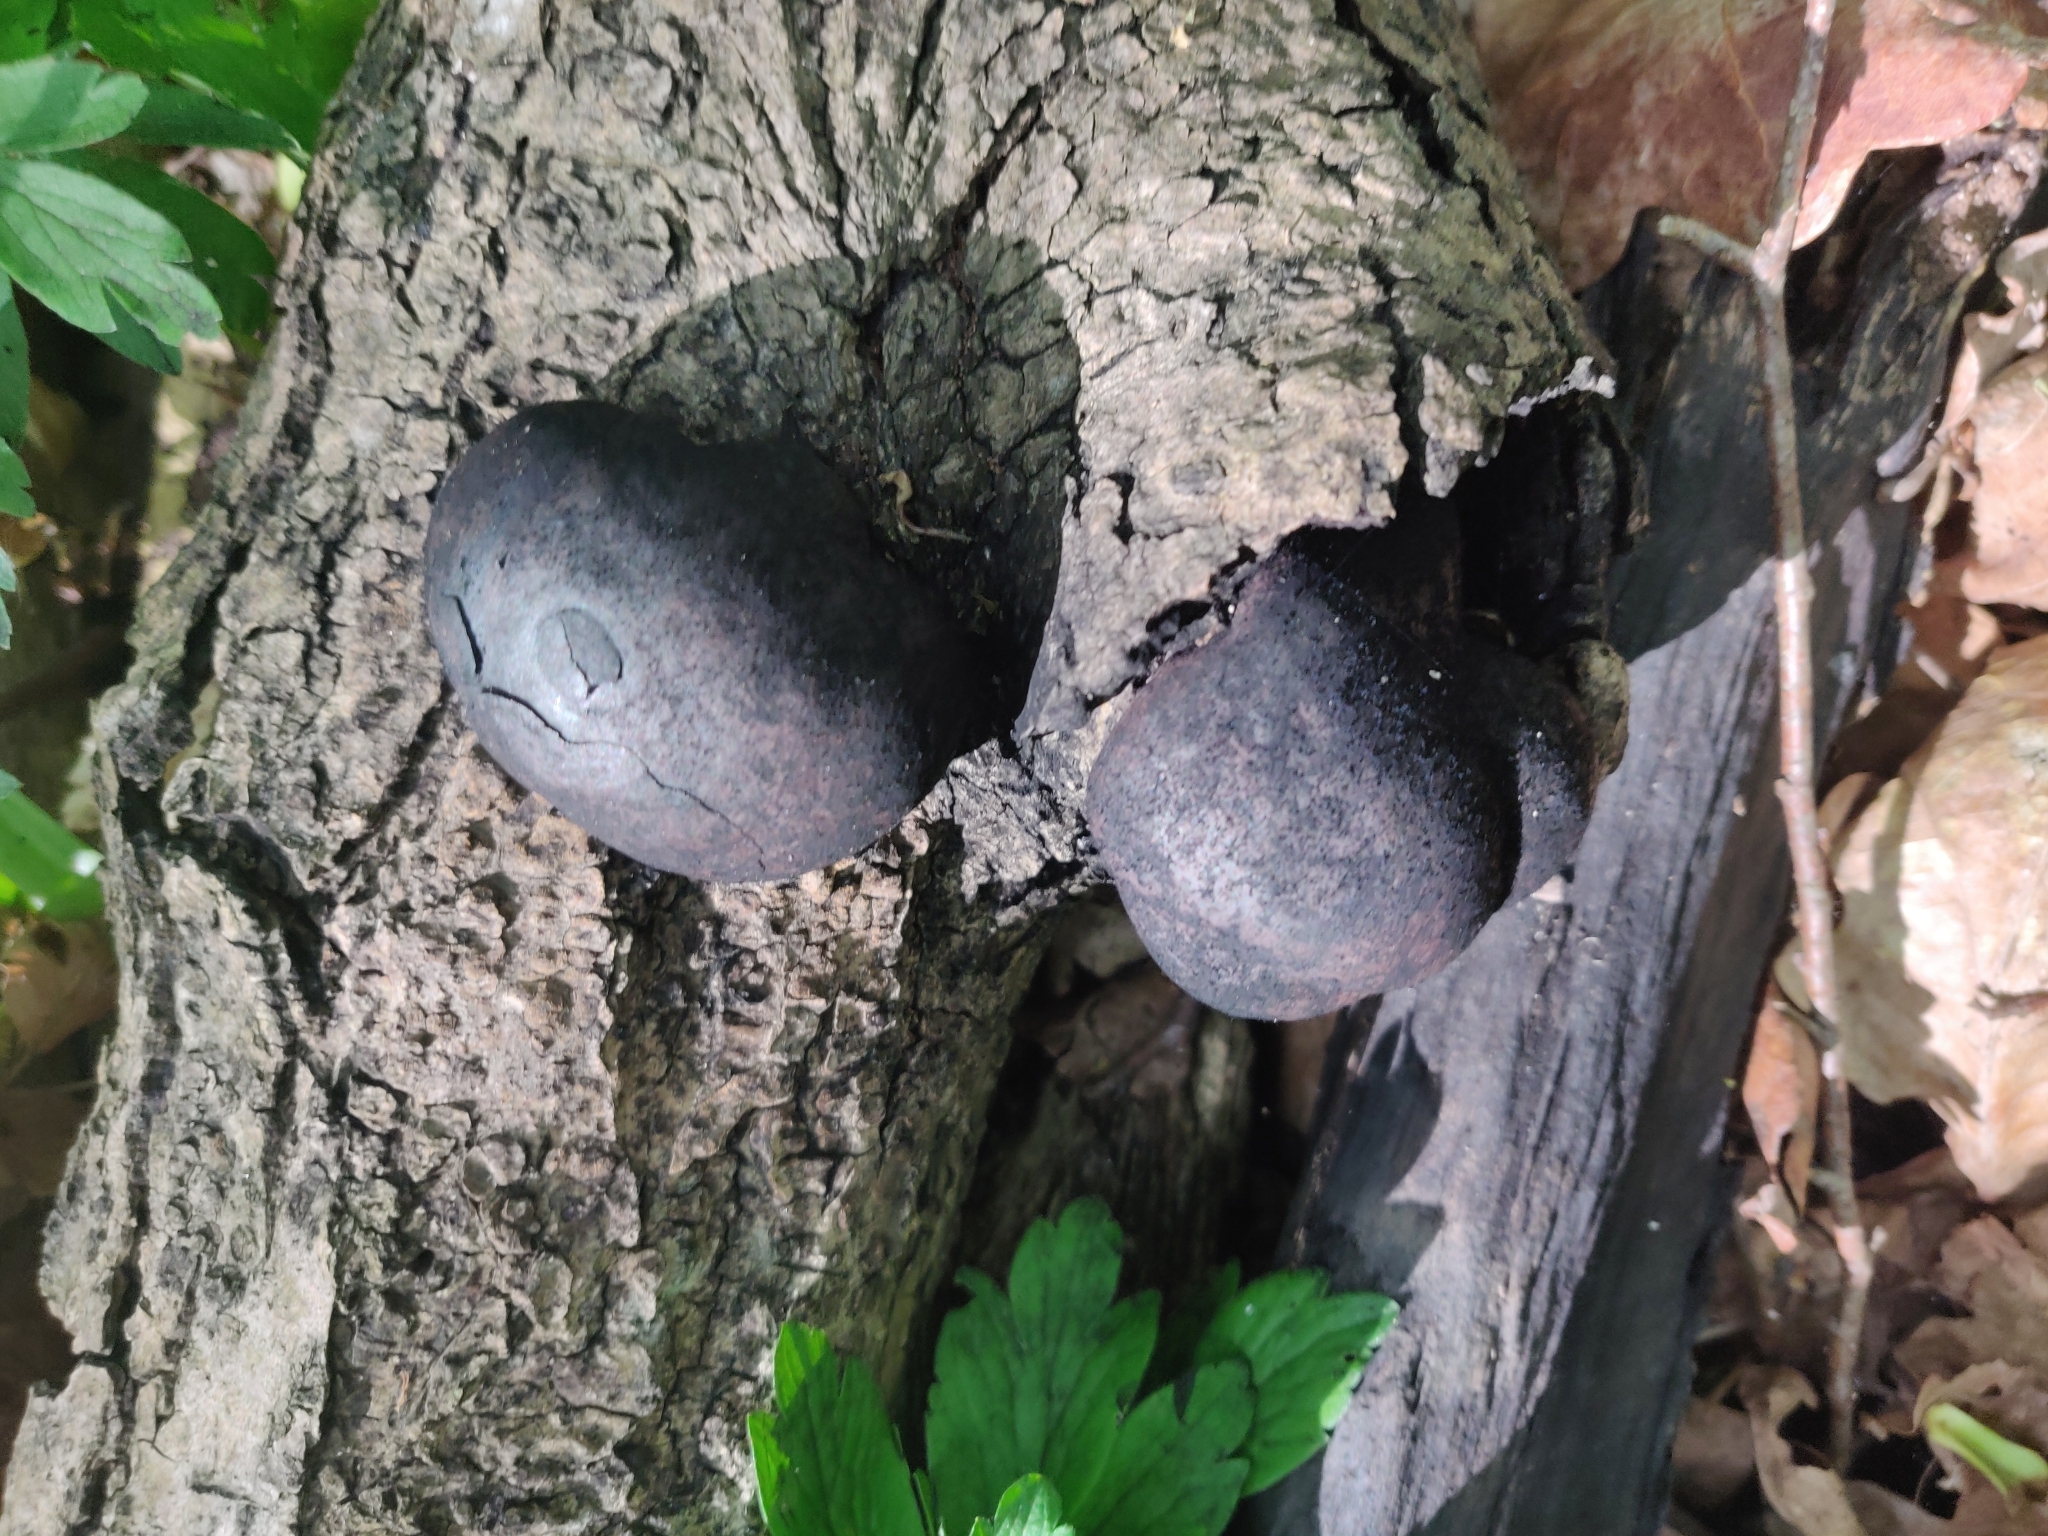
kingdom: Fungi
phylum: Ascomycota
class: Sordariomycetes
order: Xylariales
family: Hypoxylaceae
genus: Daldinia
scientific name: Daldinia concentrica
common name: Cramp balls
